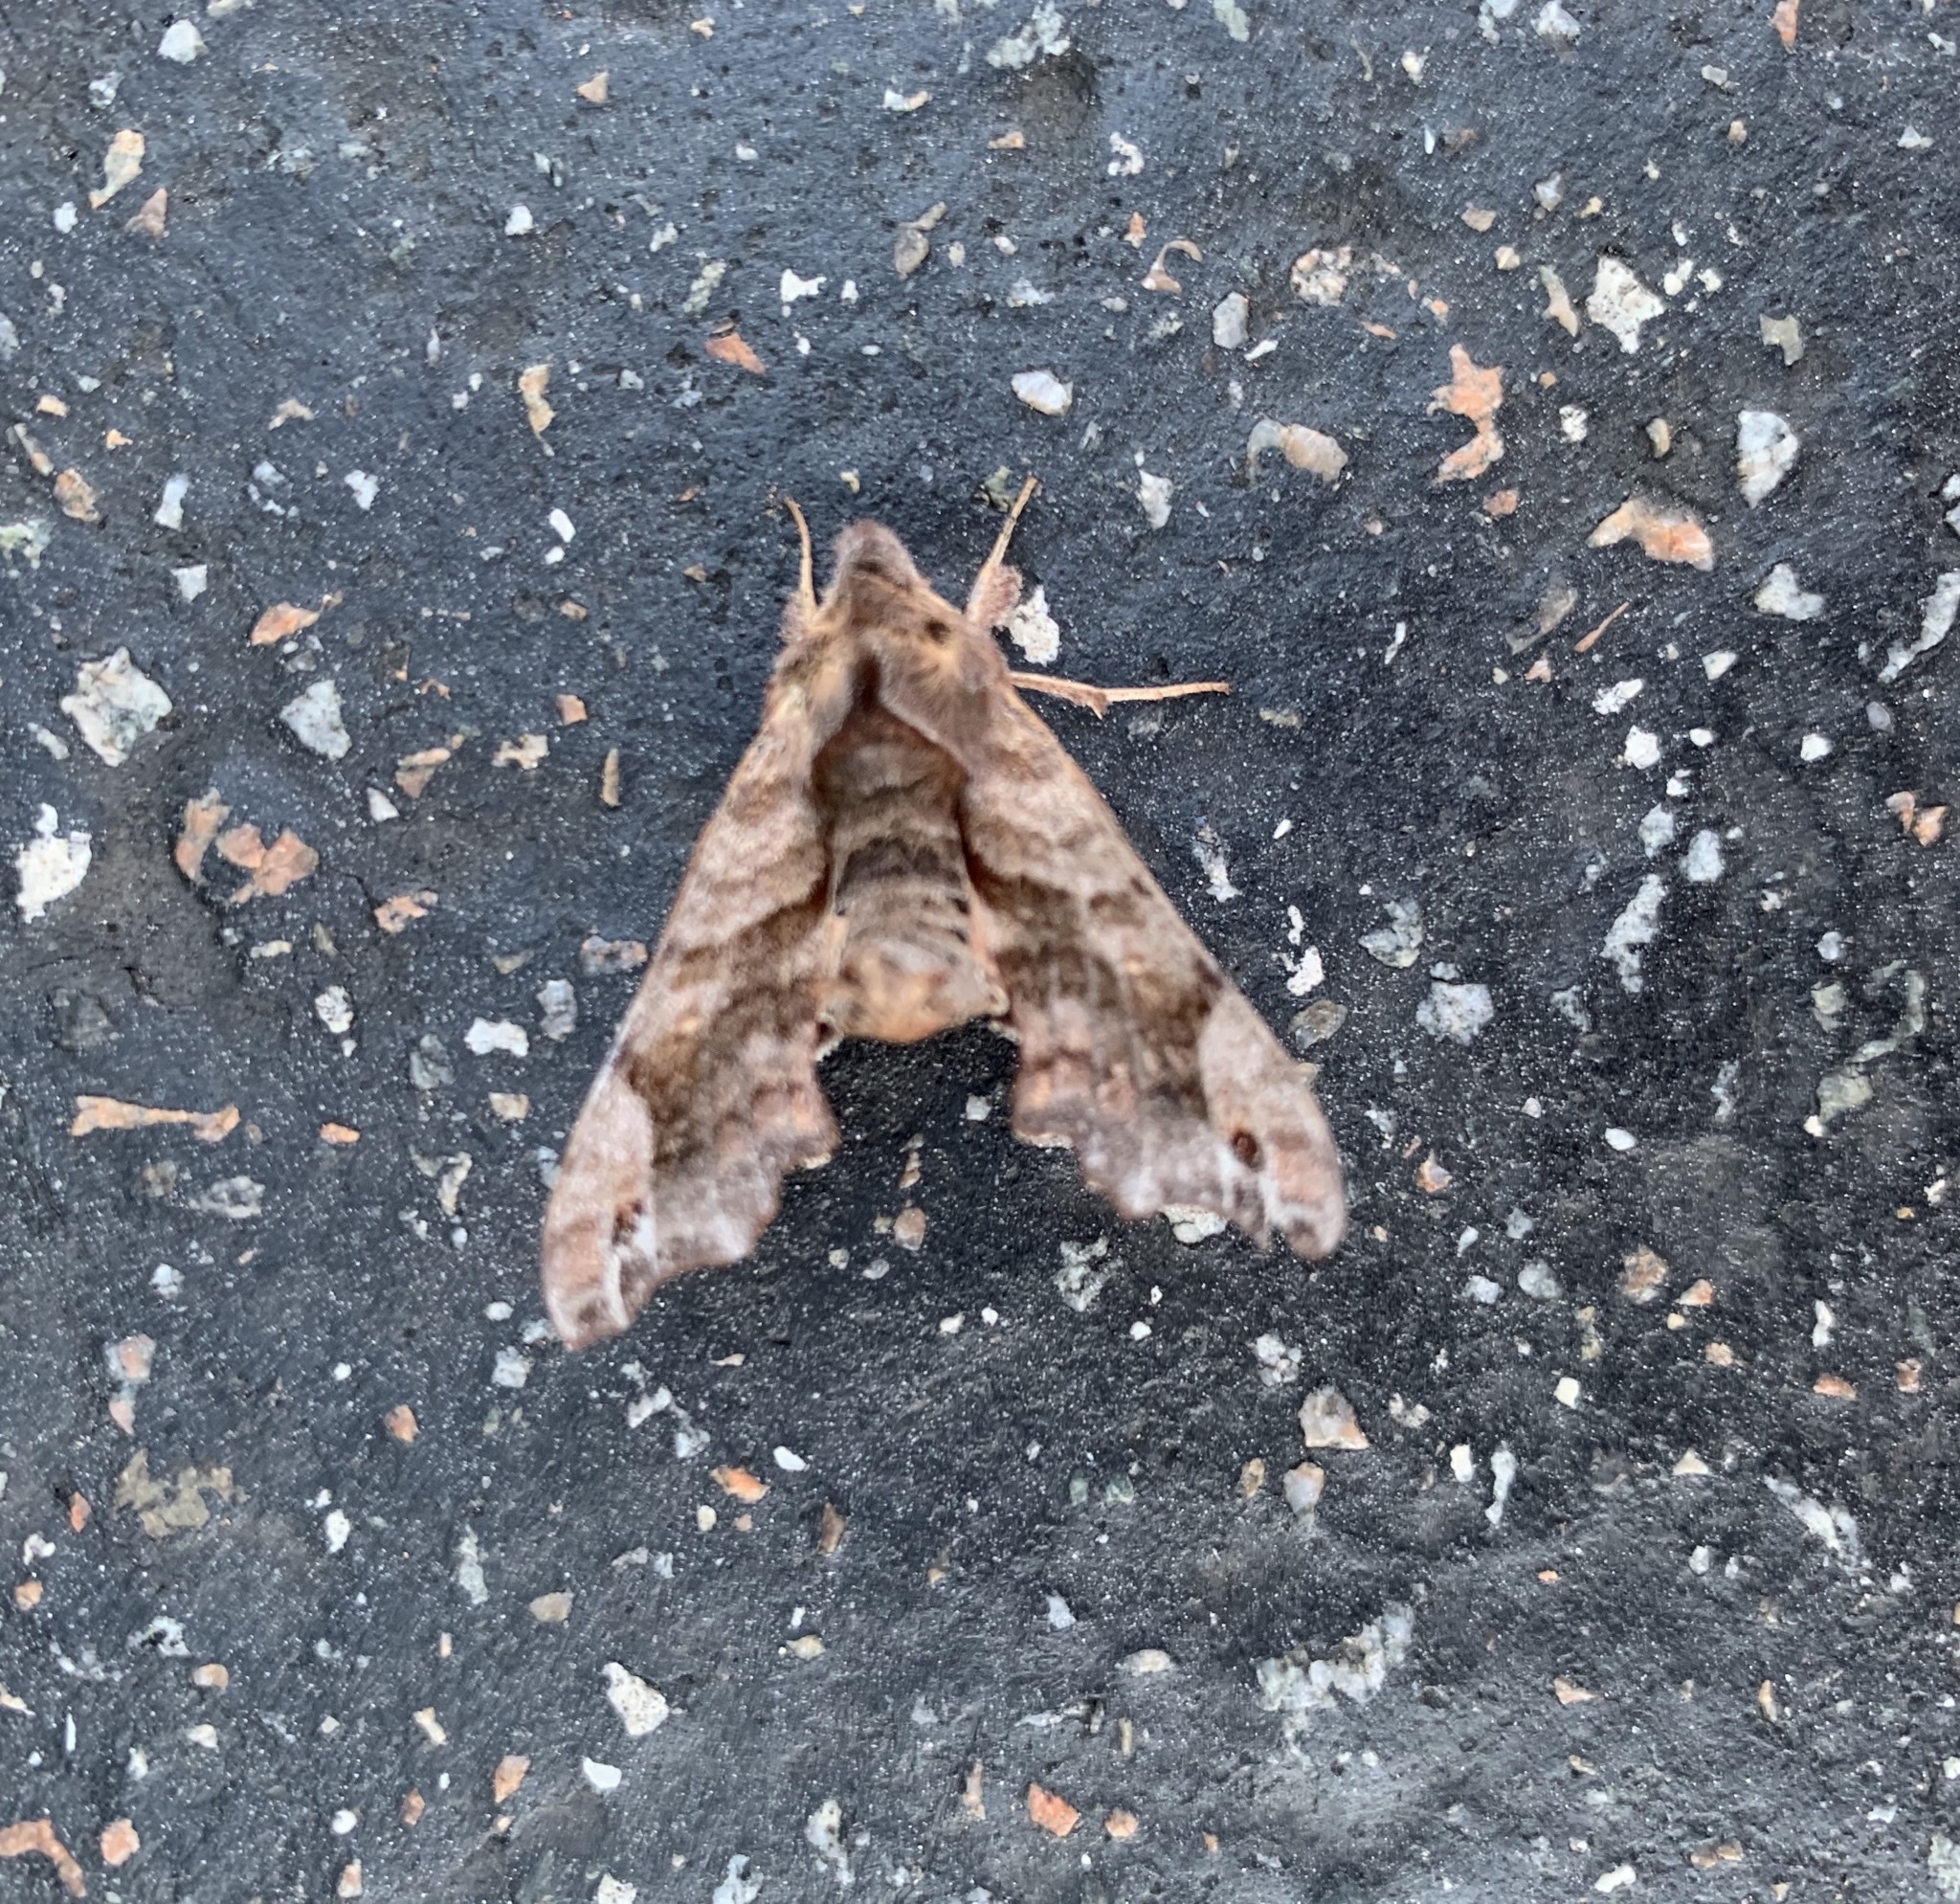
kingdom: Animalia
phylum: Arthropoda
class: Insecta
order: Lepidoptera
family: Sphingidae
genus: Deidamia
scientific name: Deidamia inscriptum
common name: Lettered sphinx
